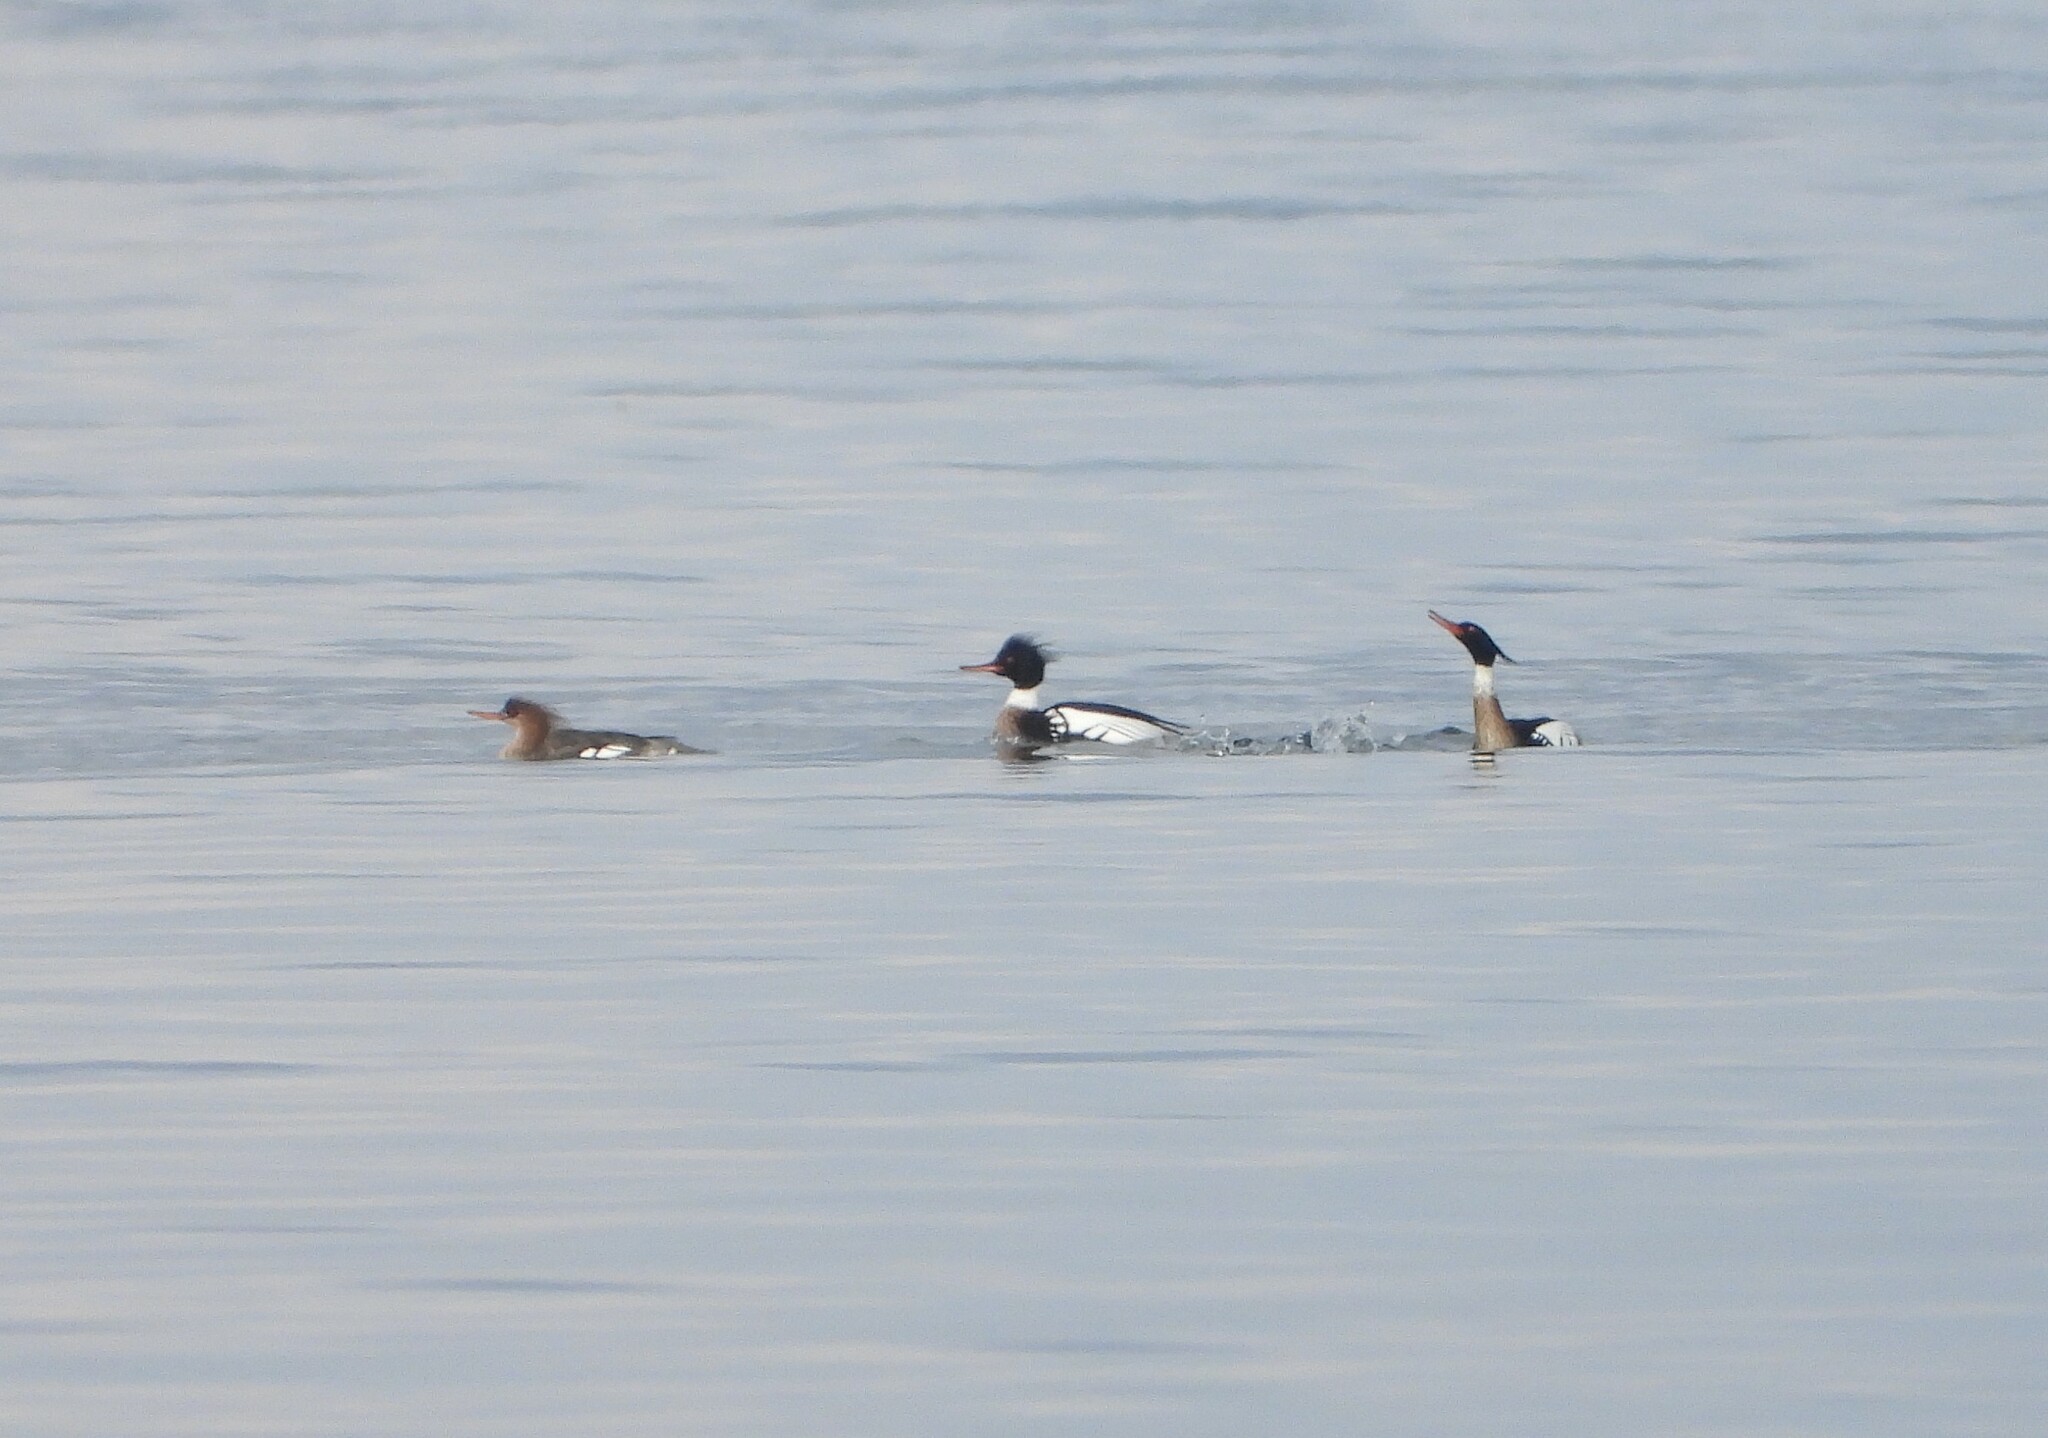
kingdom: Animalia
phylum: Chordata
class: Aves
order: Anseriformes
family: Anatidae
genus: Mergus
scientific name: Mergus serrator
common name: Red-breasted merganser
